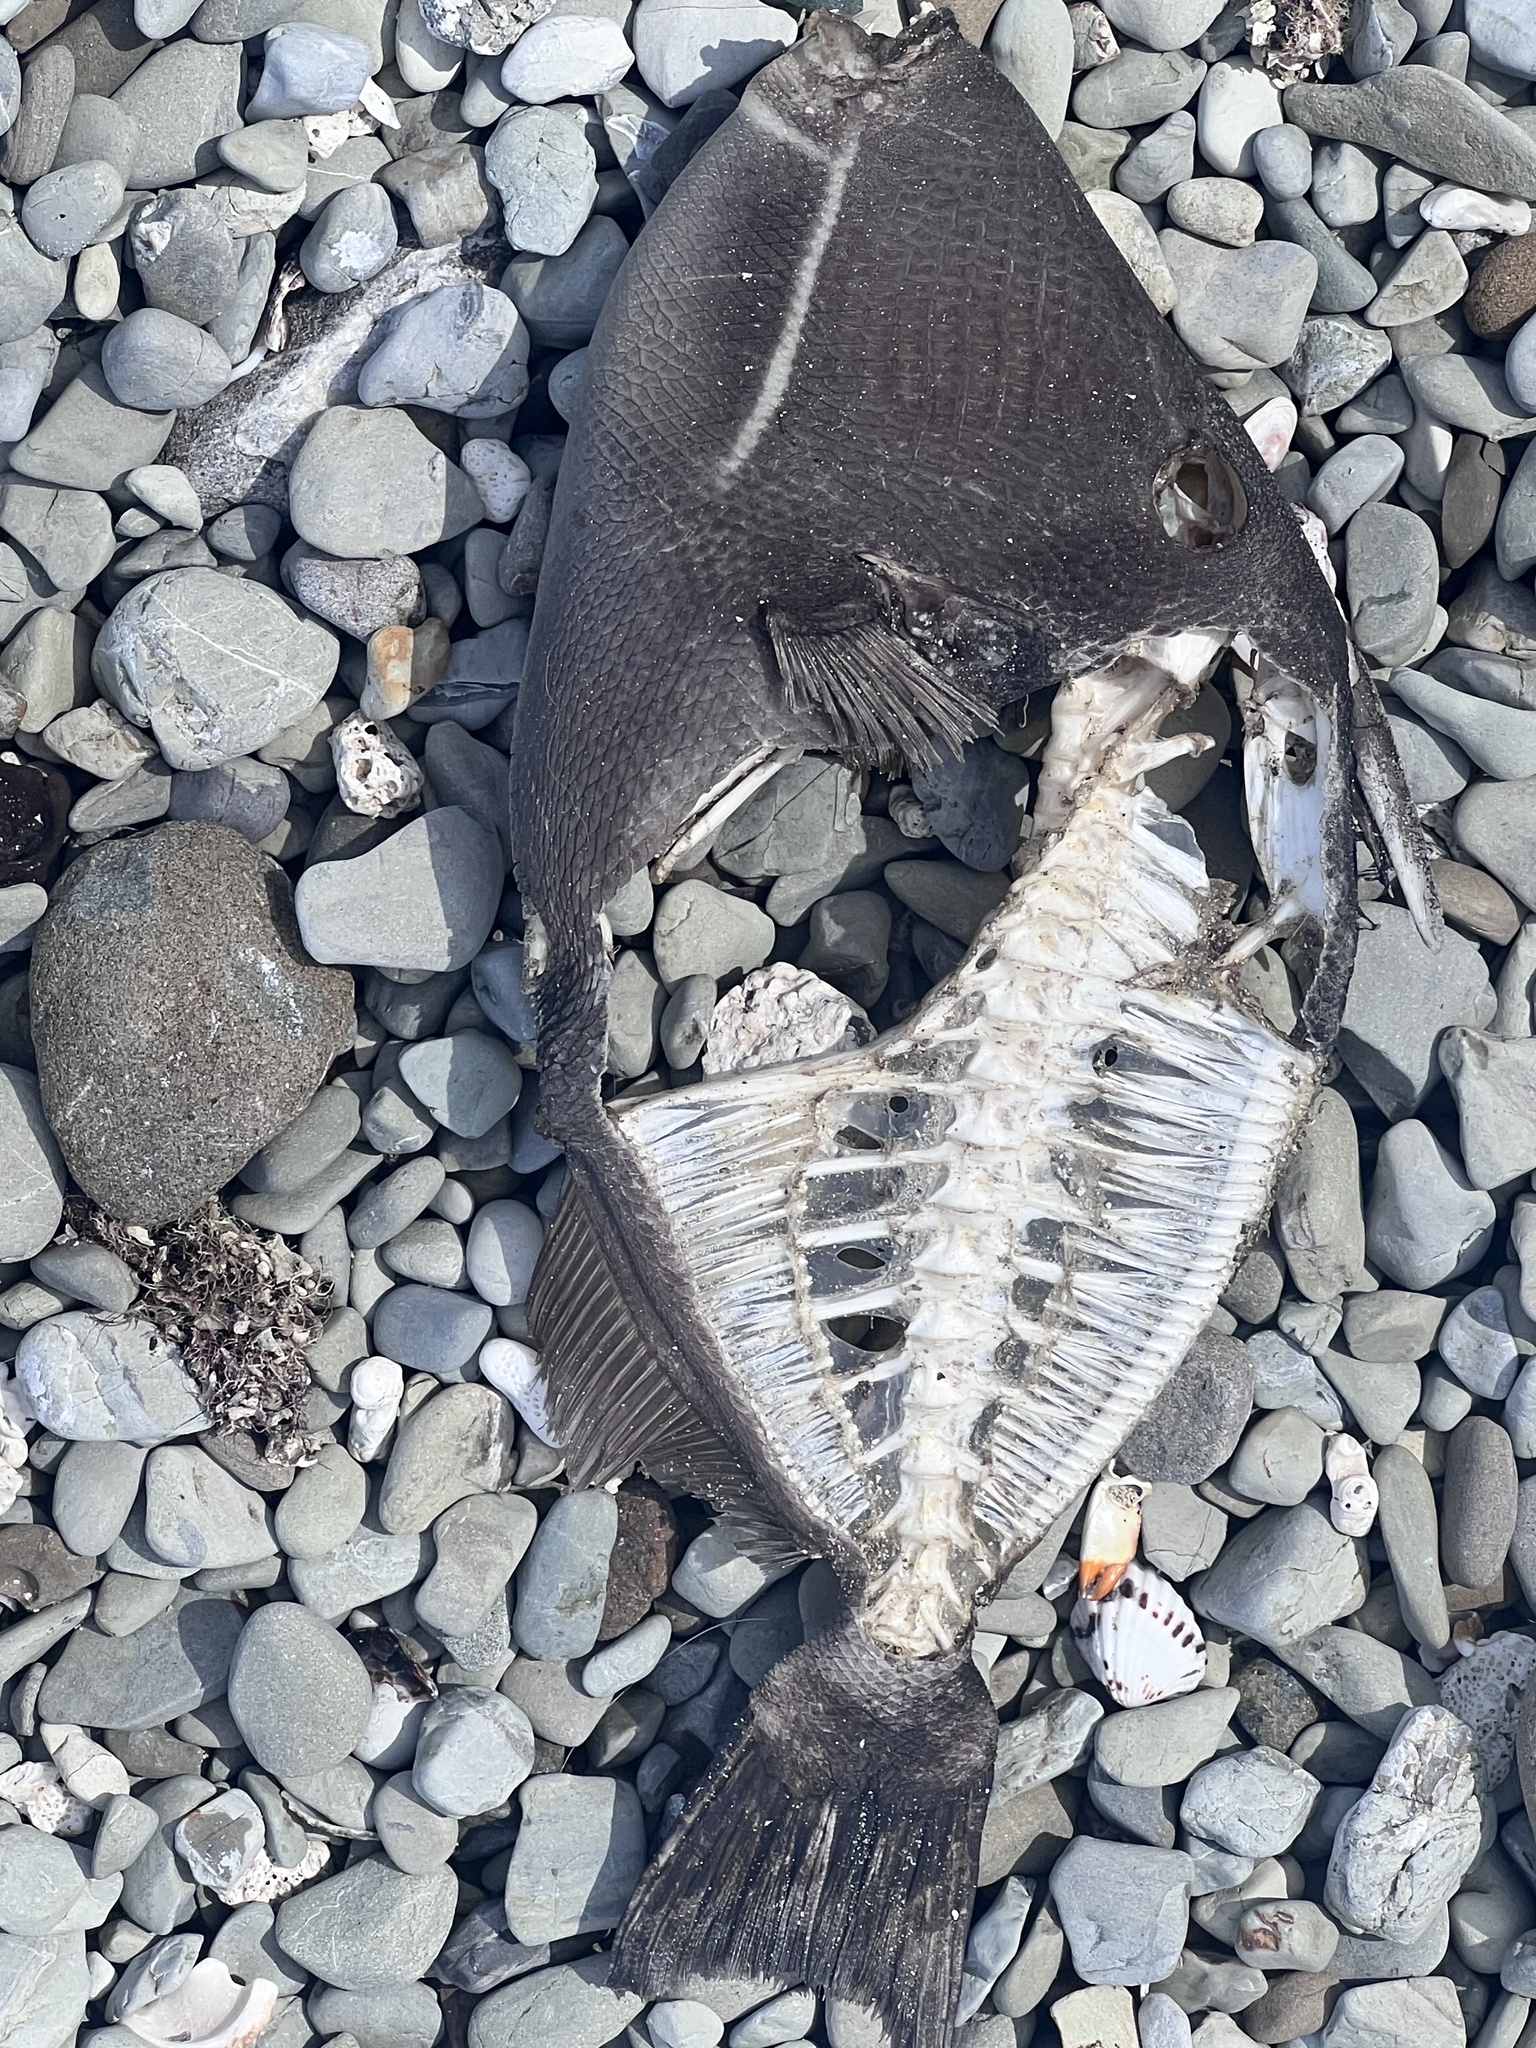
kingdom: Animalia
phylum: Chordata
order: Tetraodontiformes
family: Balistidae
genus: Sufflamen
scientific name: Sufflamen verres
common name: Orangeside triggerfish
